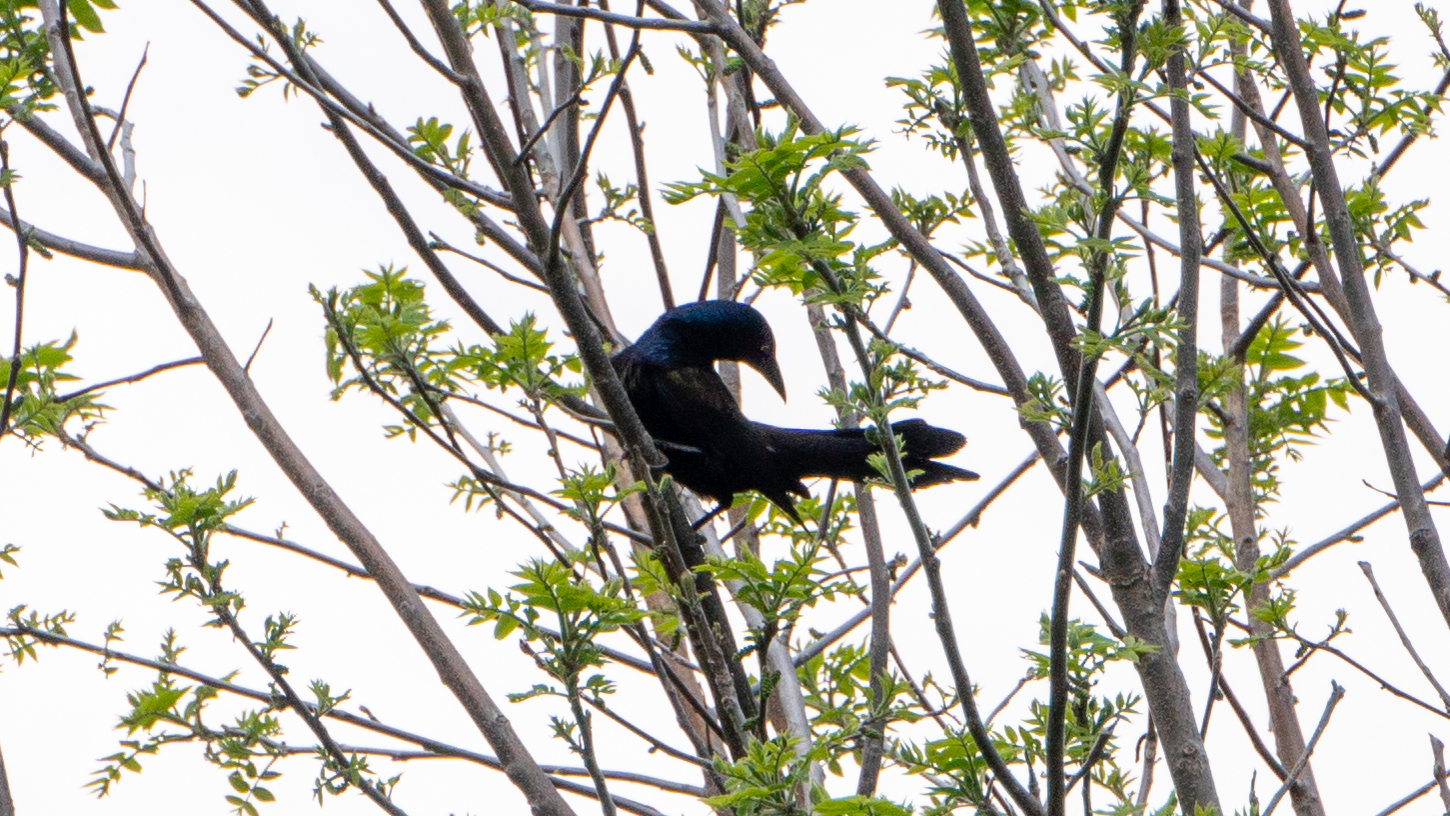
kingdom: Animalia
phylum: Chordata
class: Aves
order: Passeriformes
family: Icteridae
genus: Quiscalus
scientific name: Quiscalus quiscula
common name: Common grackle
